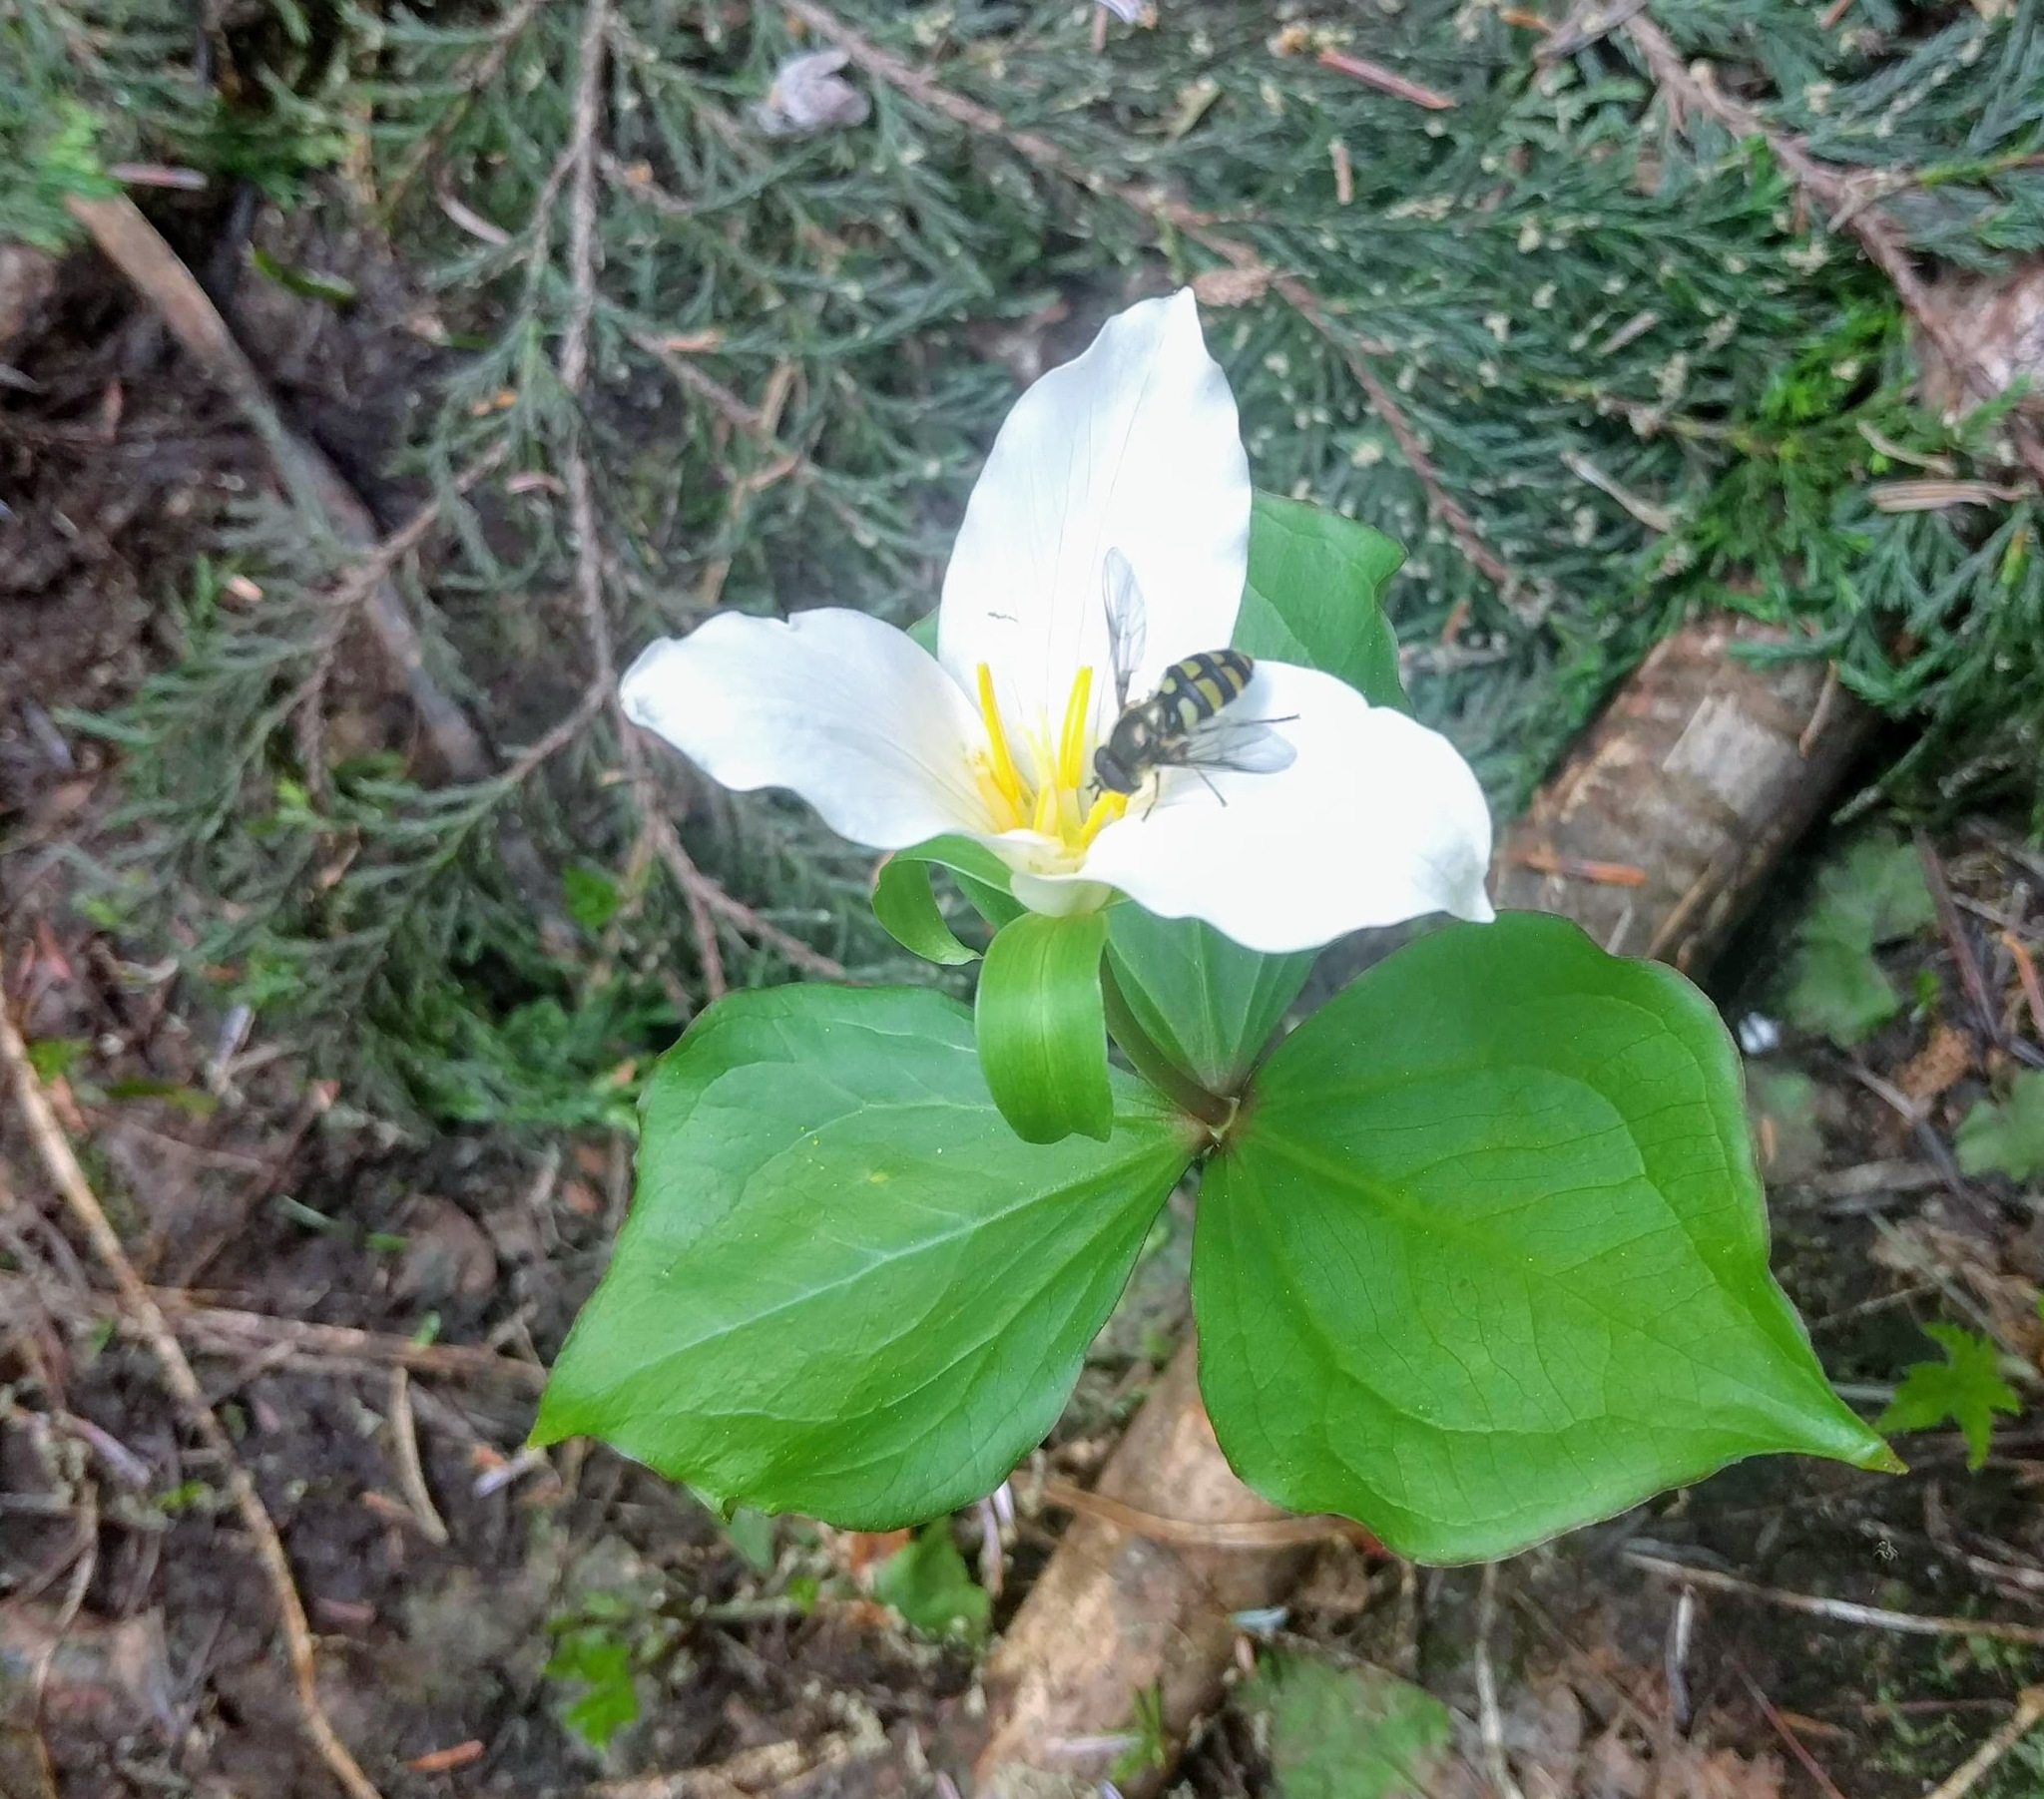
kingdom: Plantae
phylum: Tracheophyta
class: Liliopsida
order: Liliales
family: Melanthiaceae
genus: Trillium
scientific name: Trillium ovatum
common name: Pacific trillium
